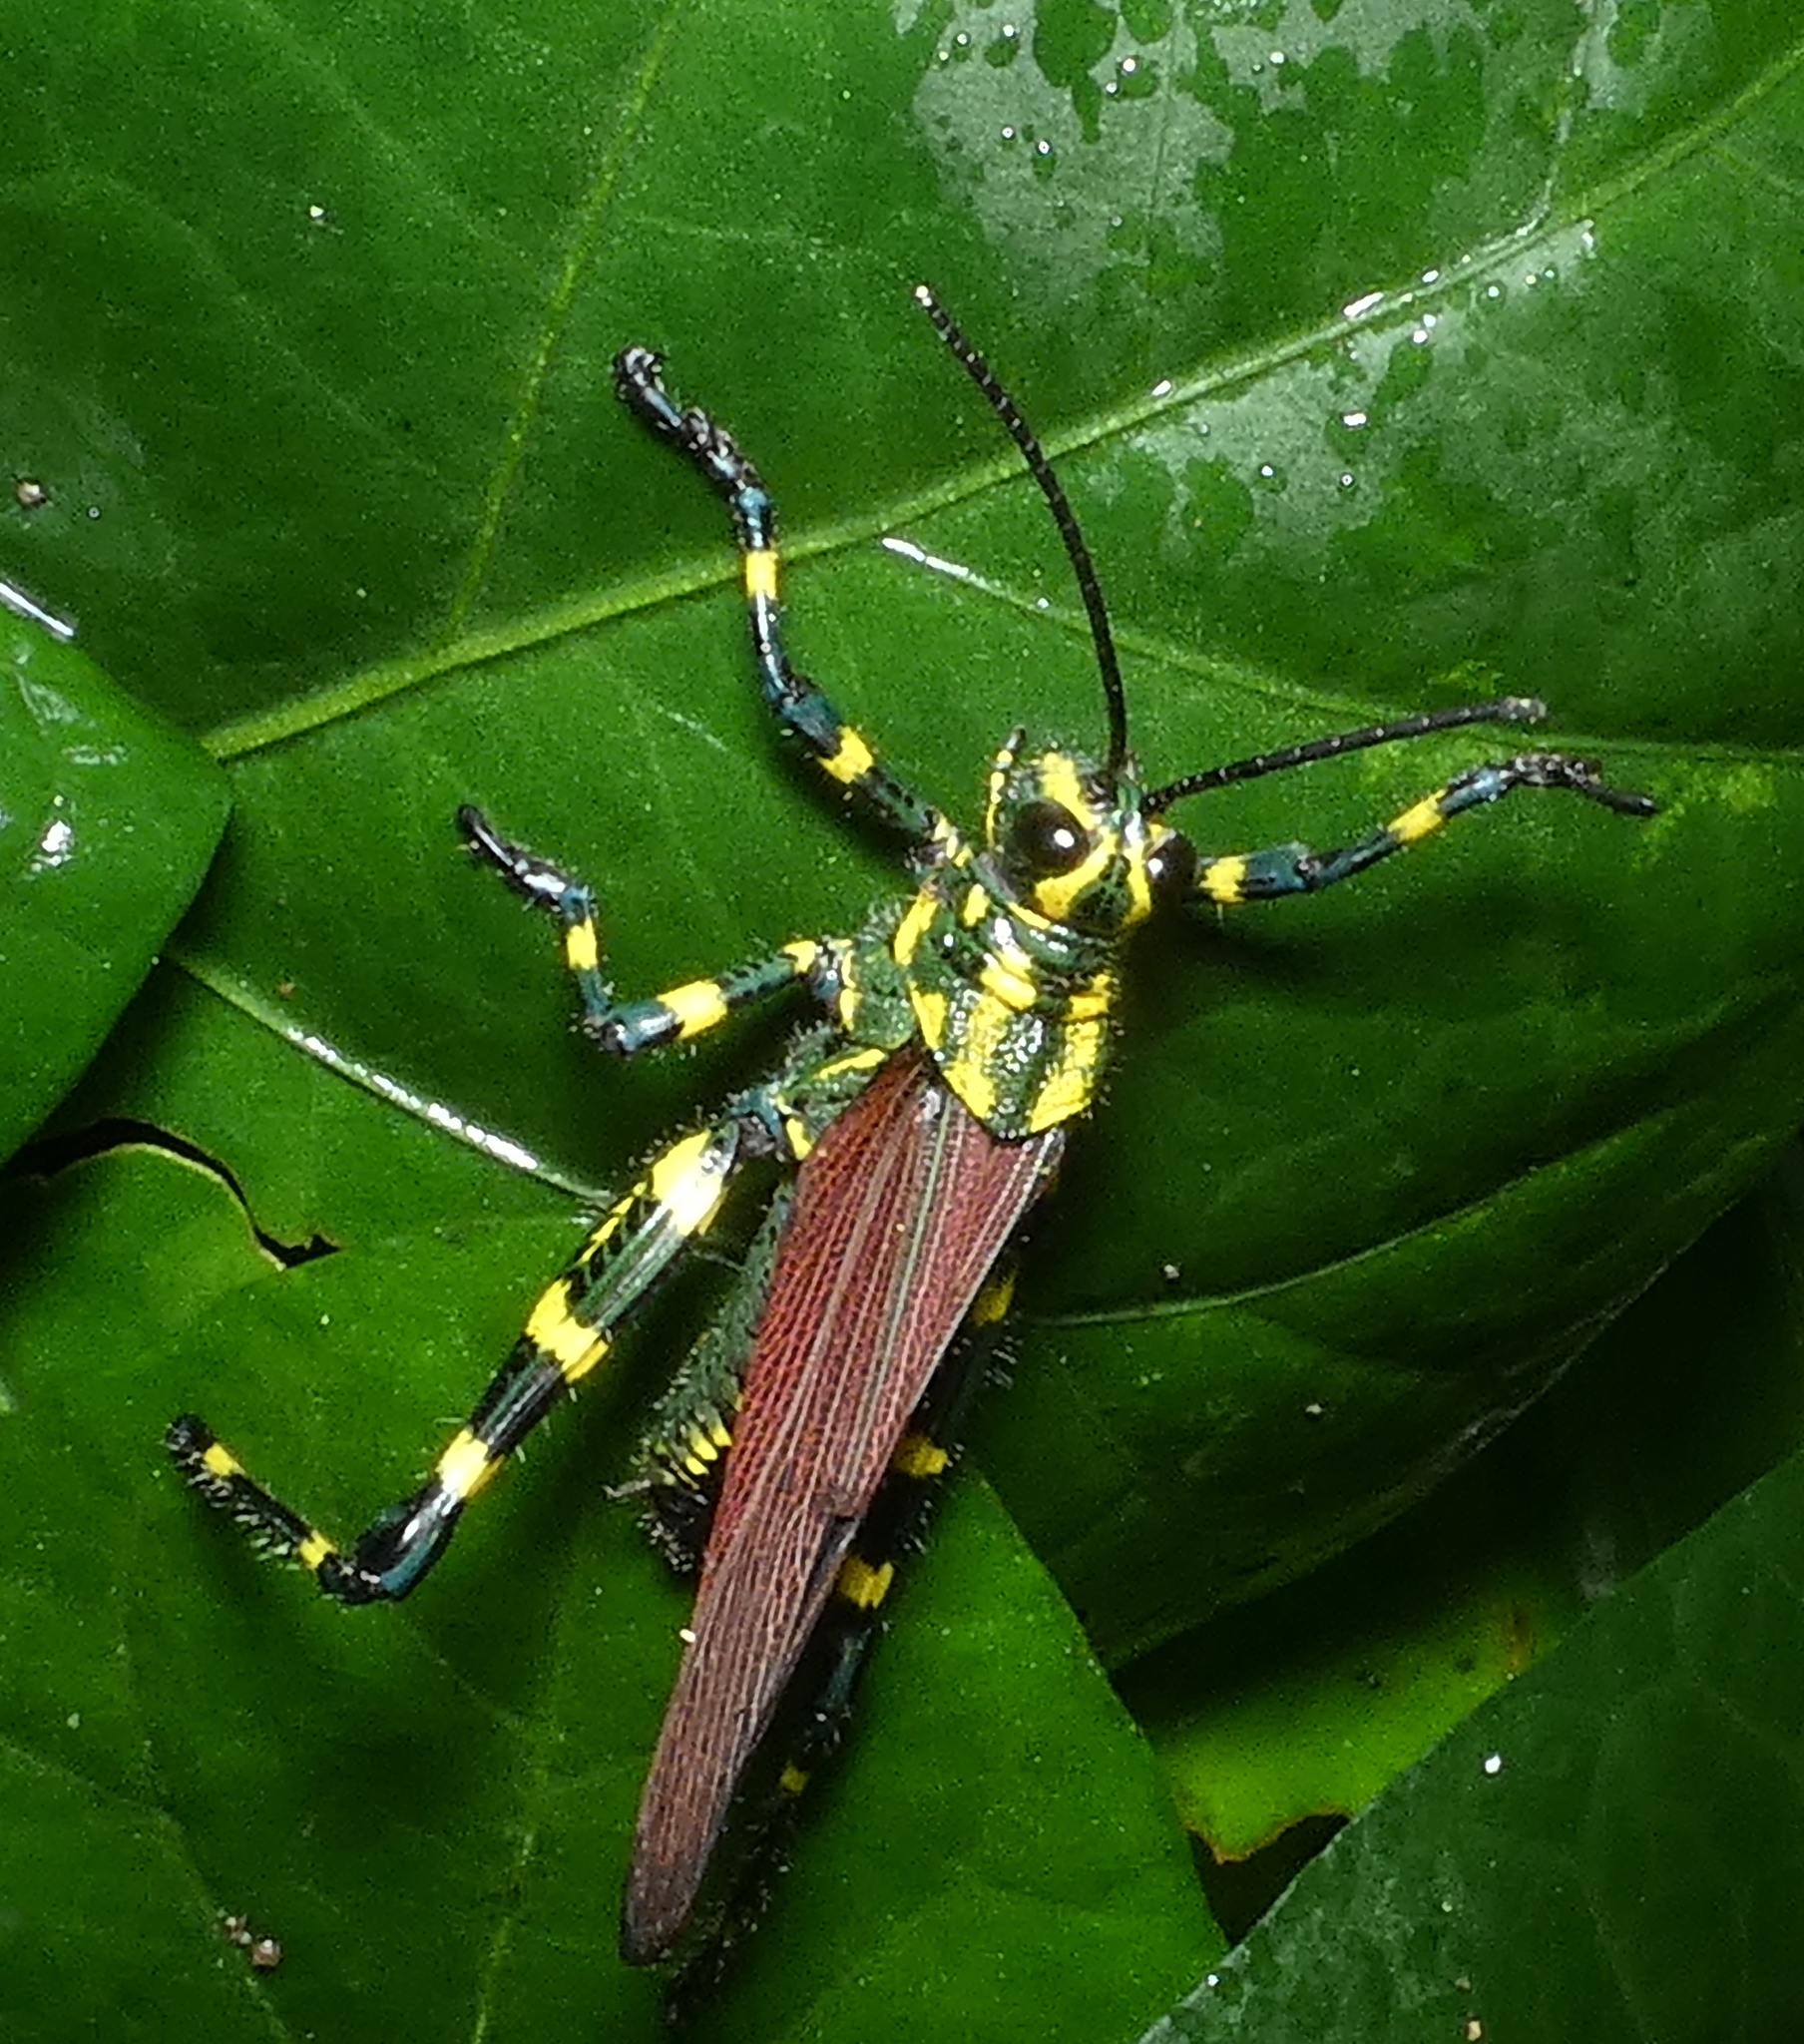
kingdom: Animalia
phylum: Arthropoda
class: Insecta
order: Orthoptera
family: Romaleidae
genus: Chromacris
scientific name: Chromacris speciosa
